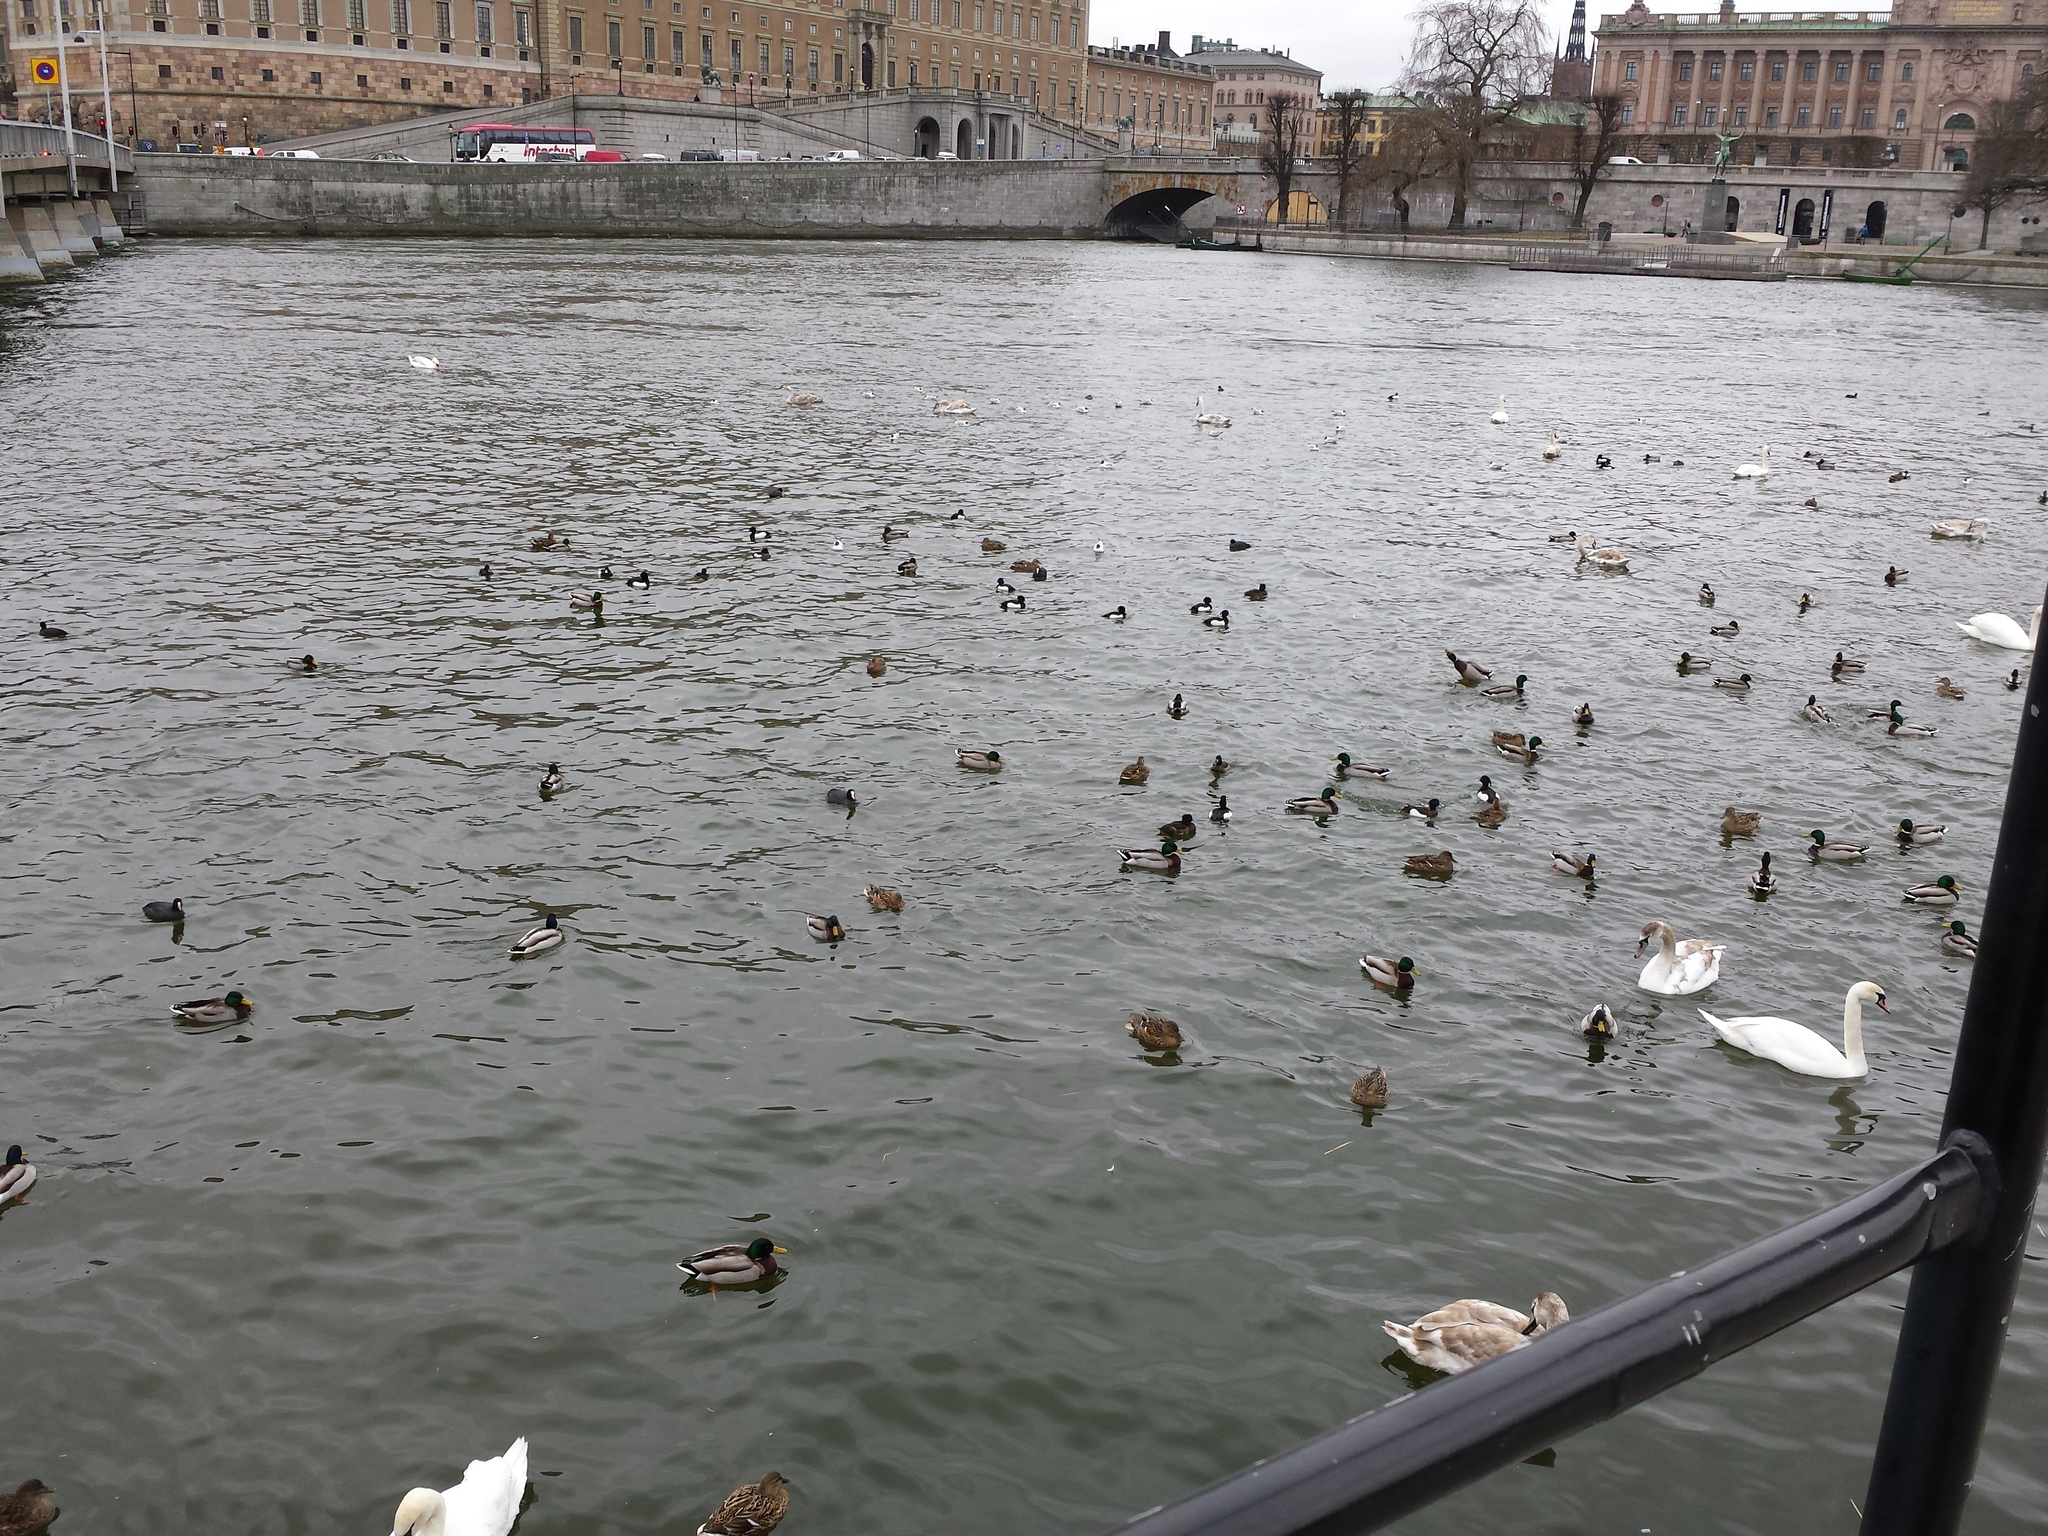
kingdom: Animalia
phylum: Chordata
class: Aves
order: Anseriformes
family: Anatidae
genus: Anas
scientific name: Anas platyrhynchos
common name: Mallard
